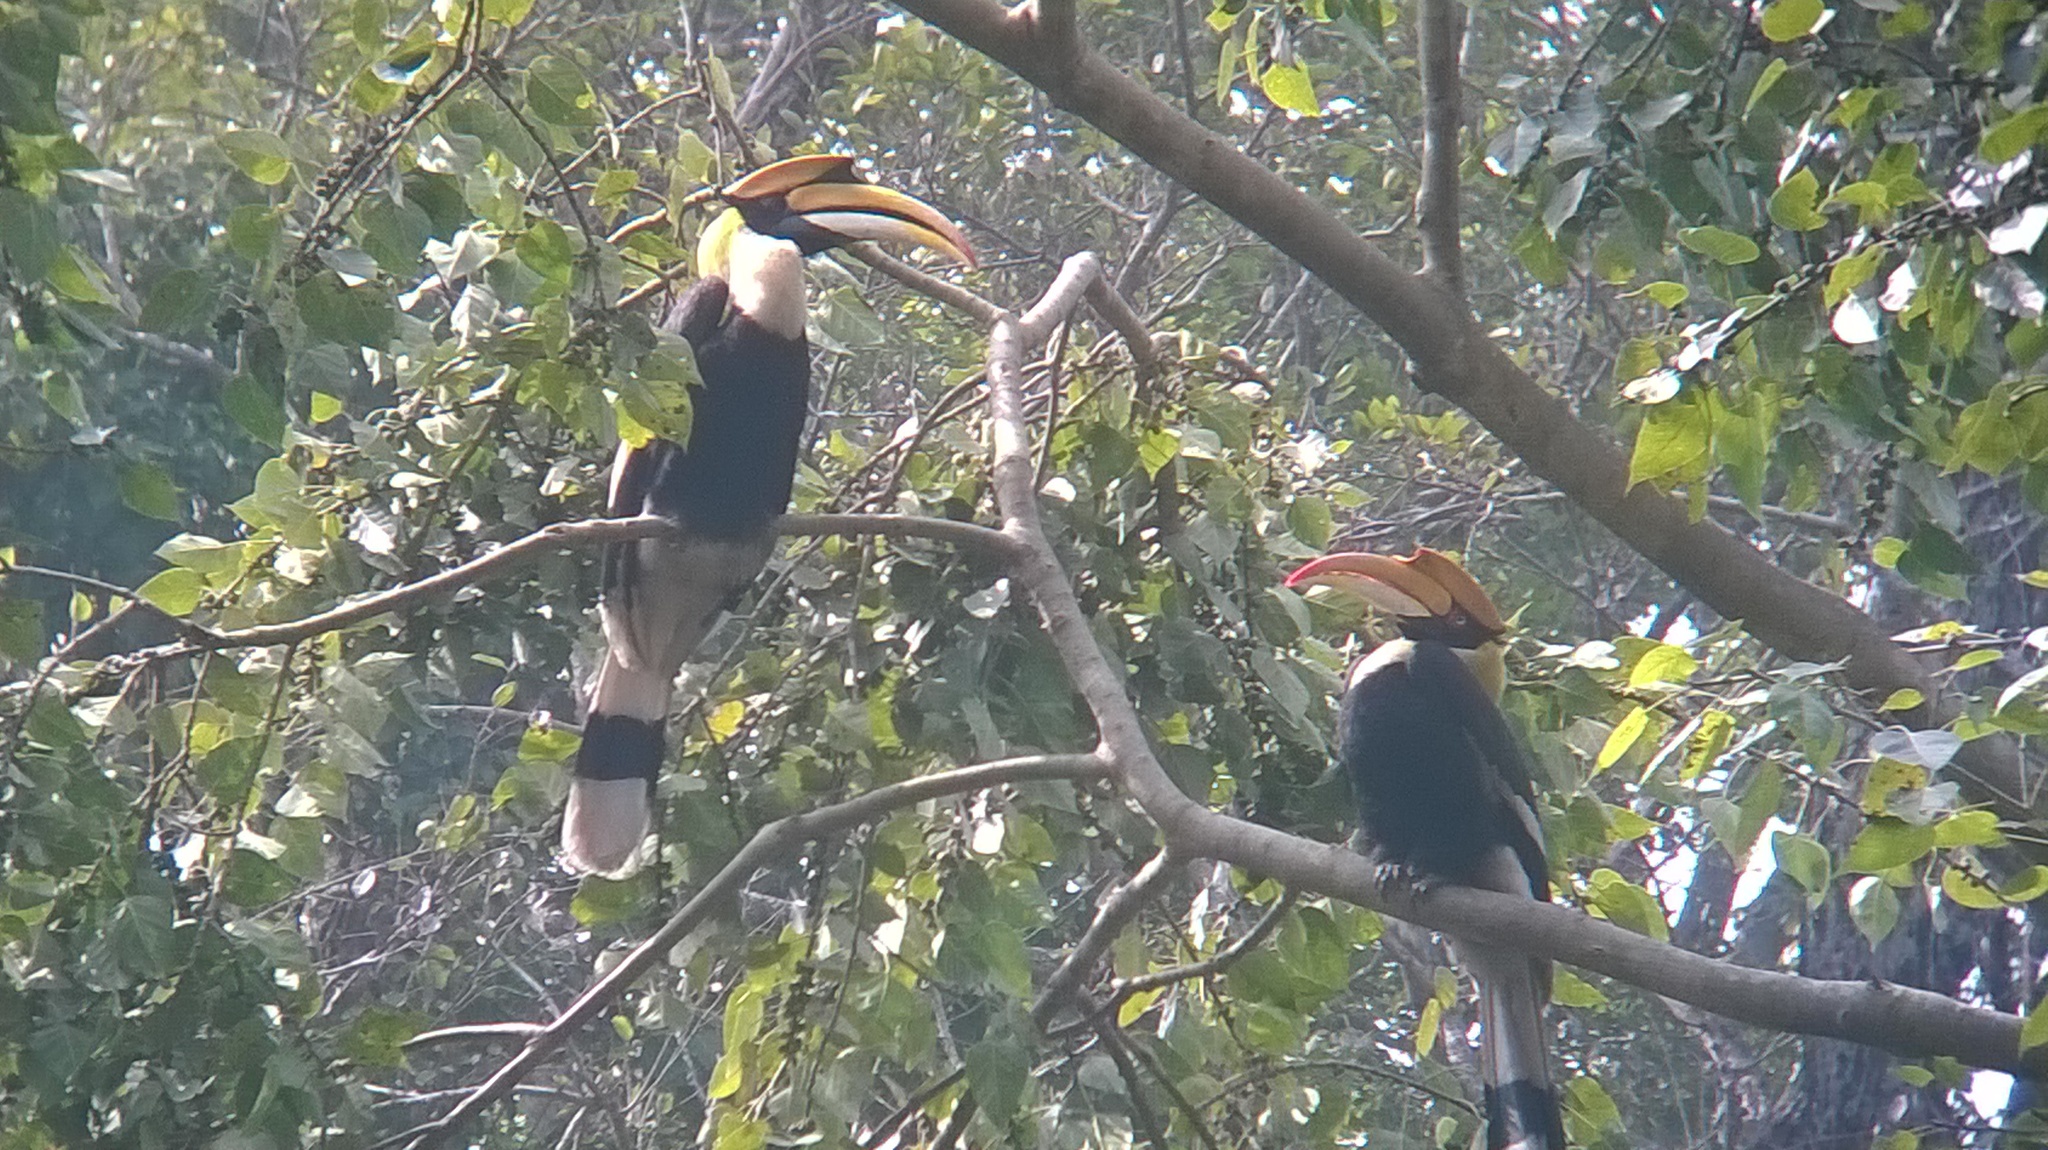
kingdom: Animalia
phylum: Chordata
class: Aves
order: Bucerotiformes
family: Bucerotidae
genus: Buceros
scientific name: Buceros bicornis
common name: Great hornbill
